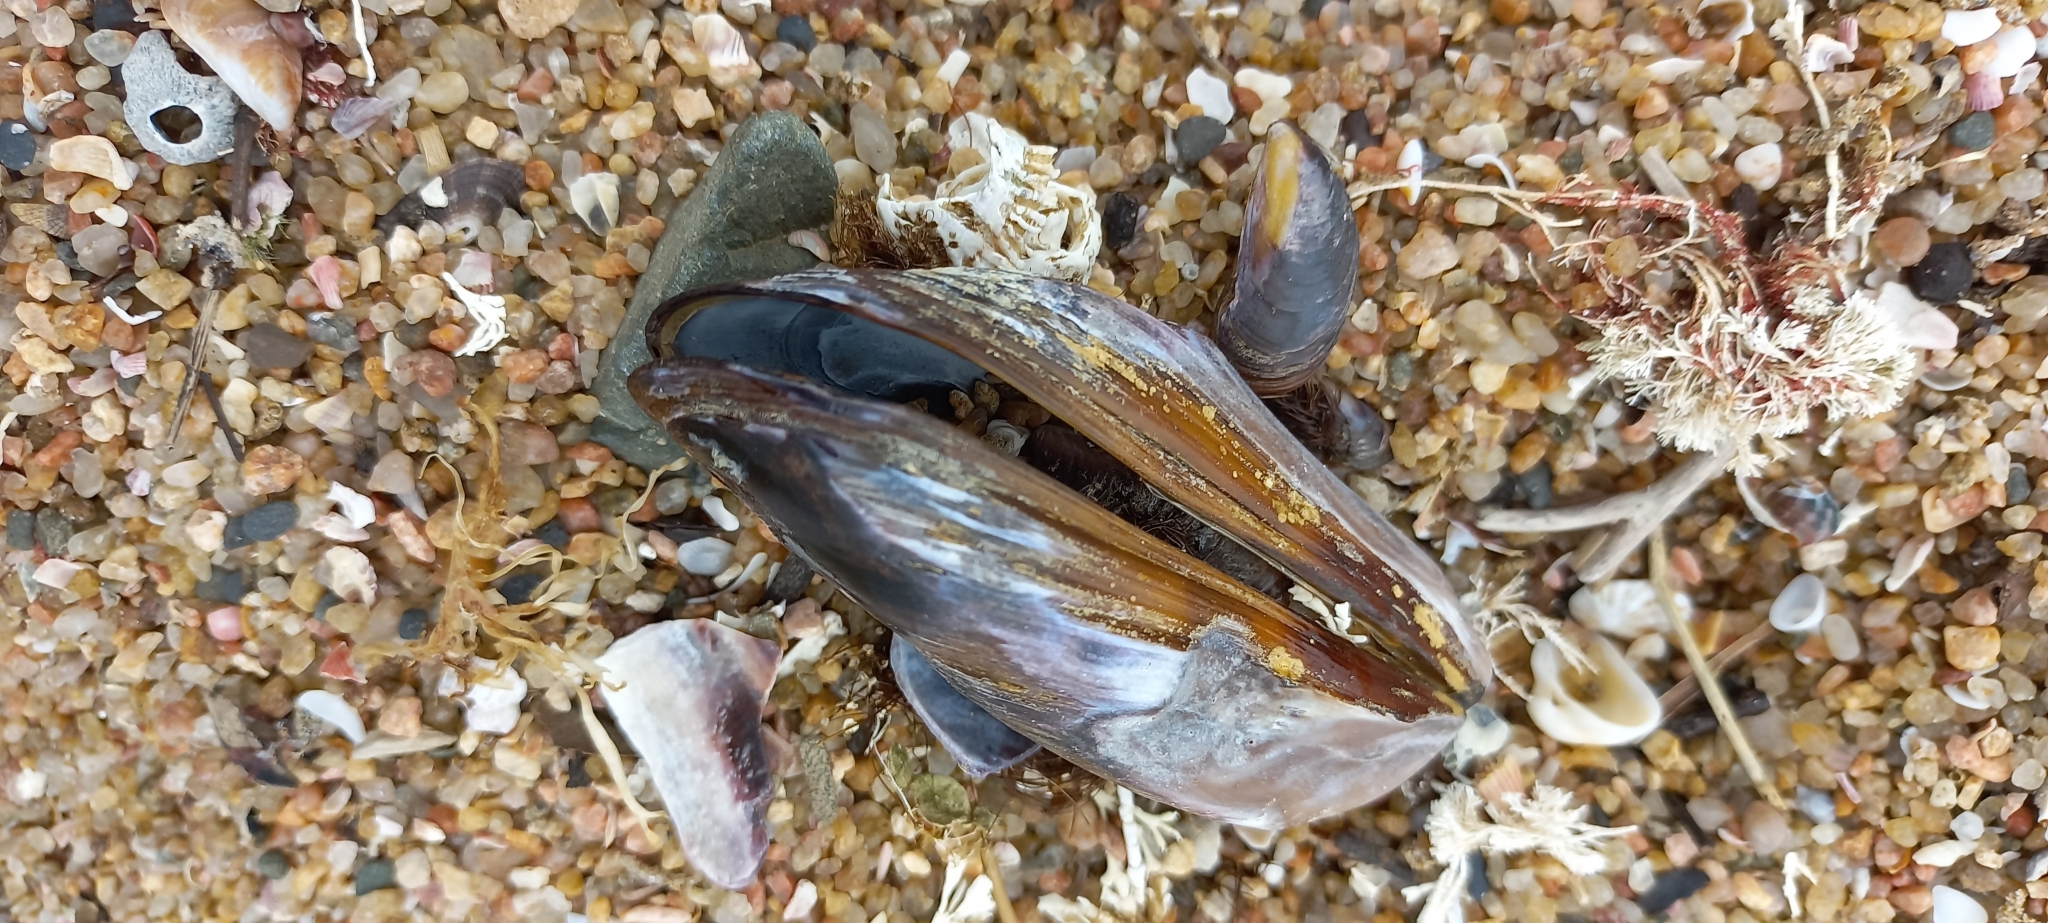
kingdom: Animalia
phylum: Mollusca
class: Bivalvia
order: Mytilida
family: Mytilidae
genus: Perna
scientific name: Perna perna
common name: Mexilhao mussel
